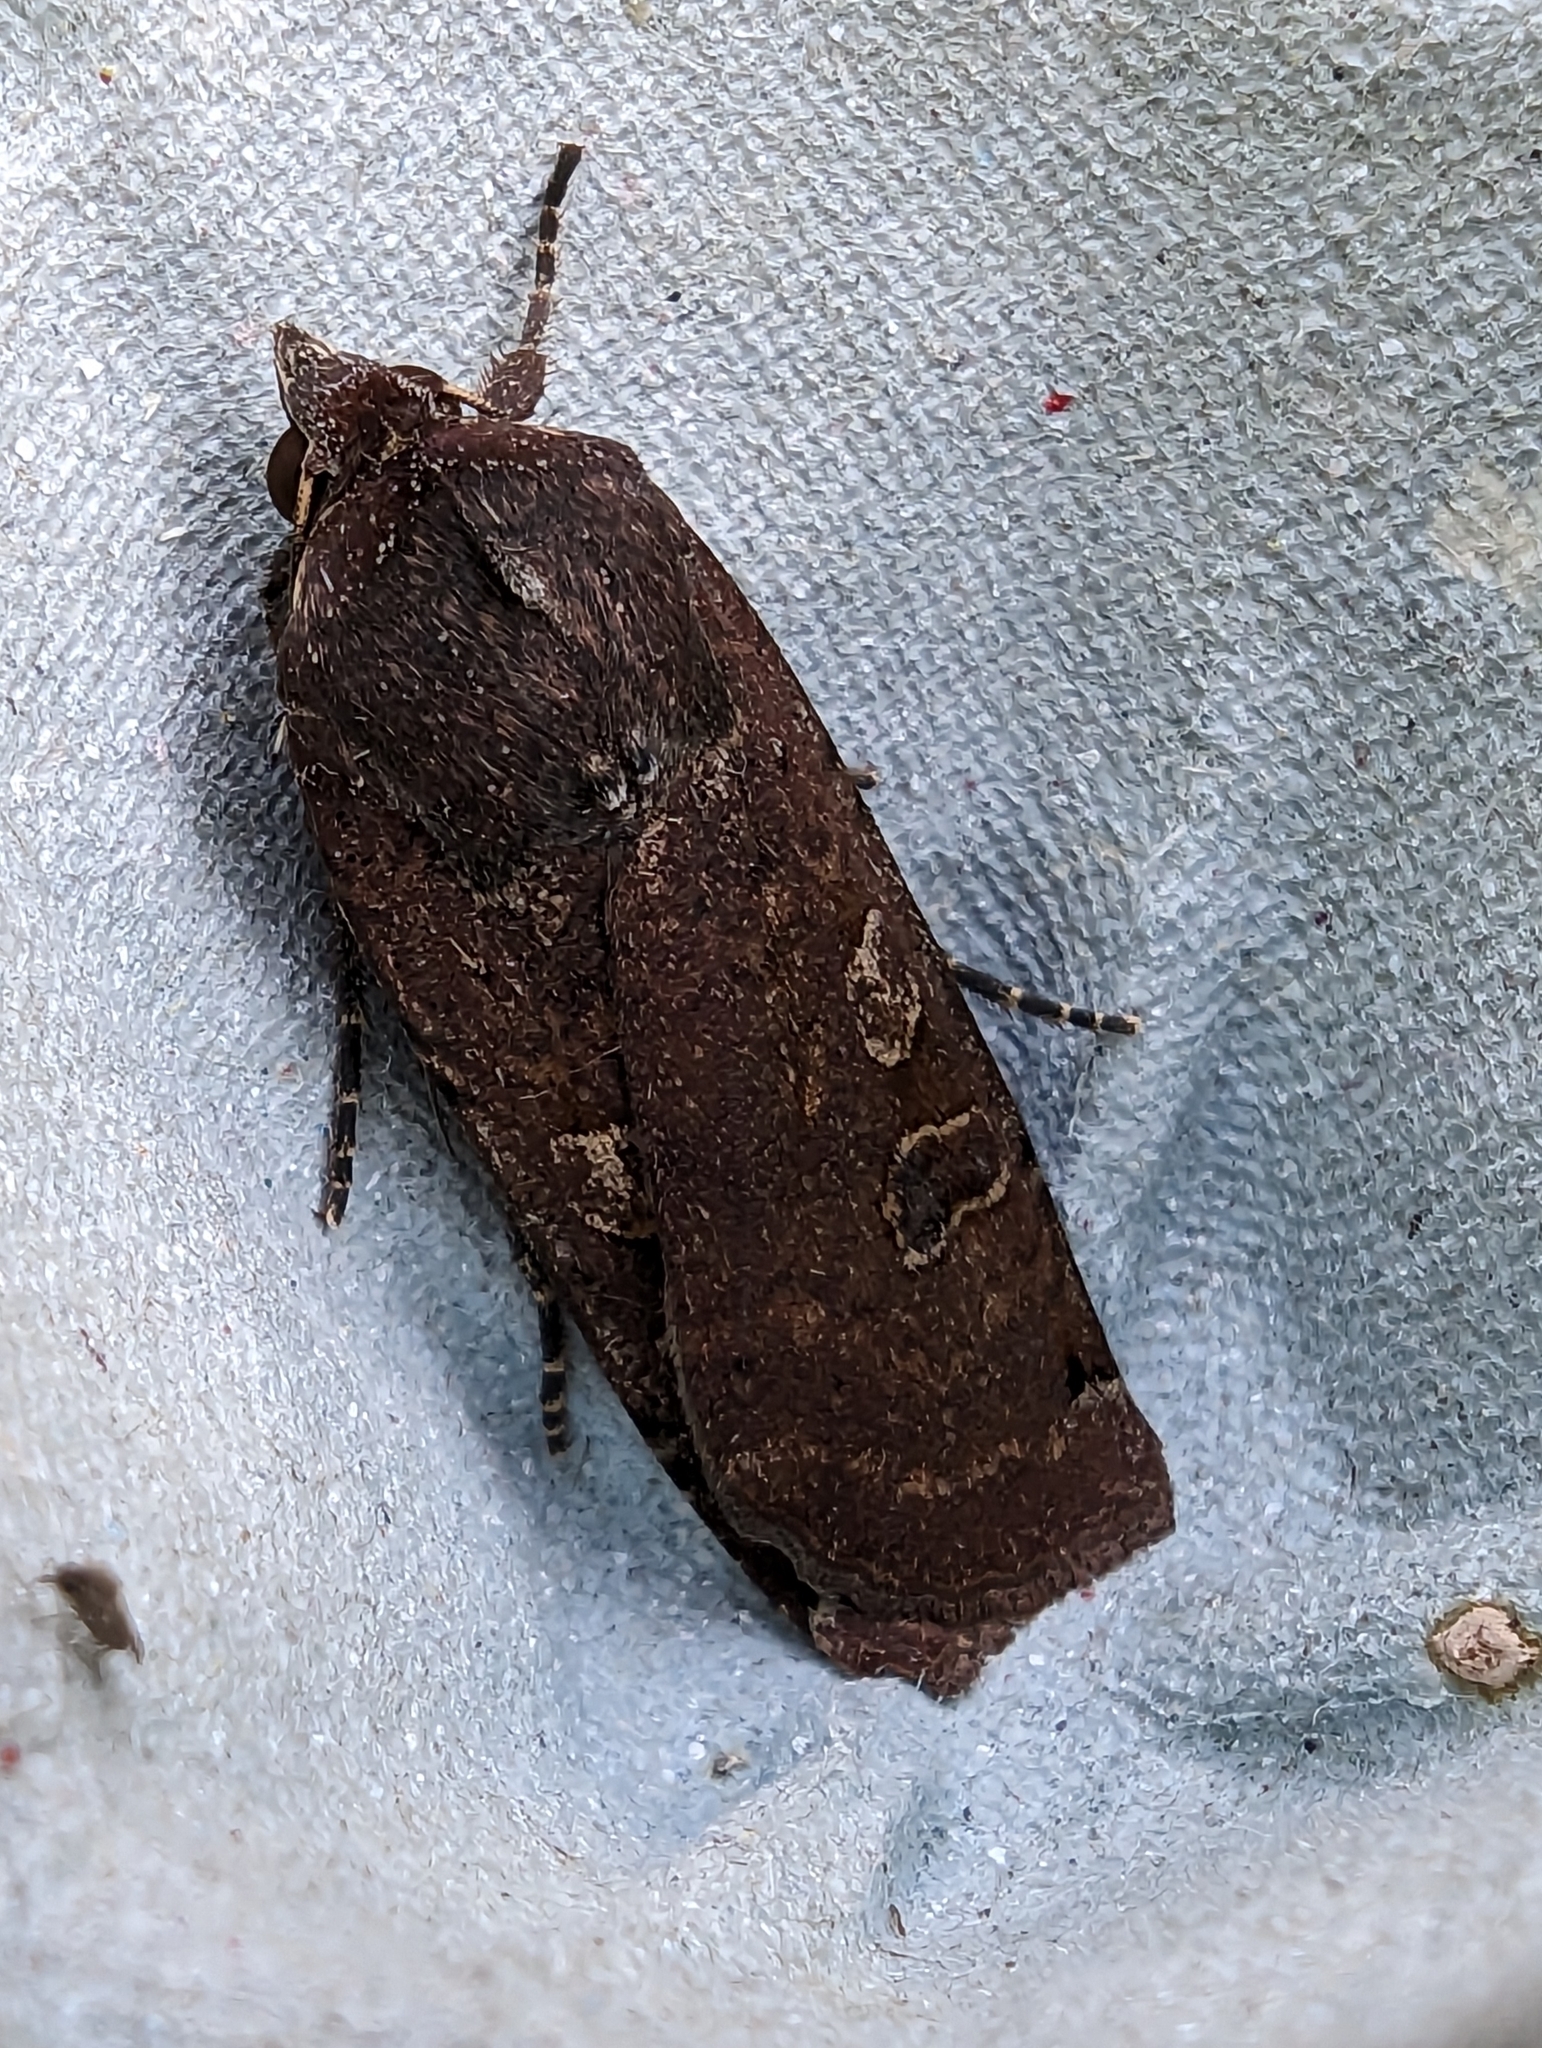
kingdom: Animalia
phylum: Arthropoda
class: Insecta
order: Lepidoptera
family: Noctuidae
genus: Noctua
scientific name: Noctua pronuba
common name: Large yellow underwing
